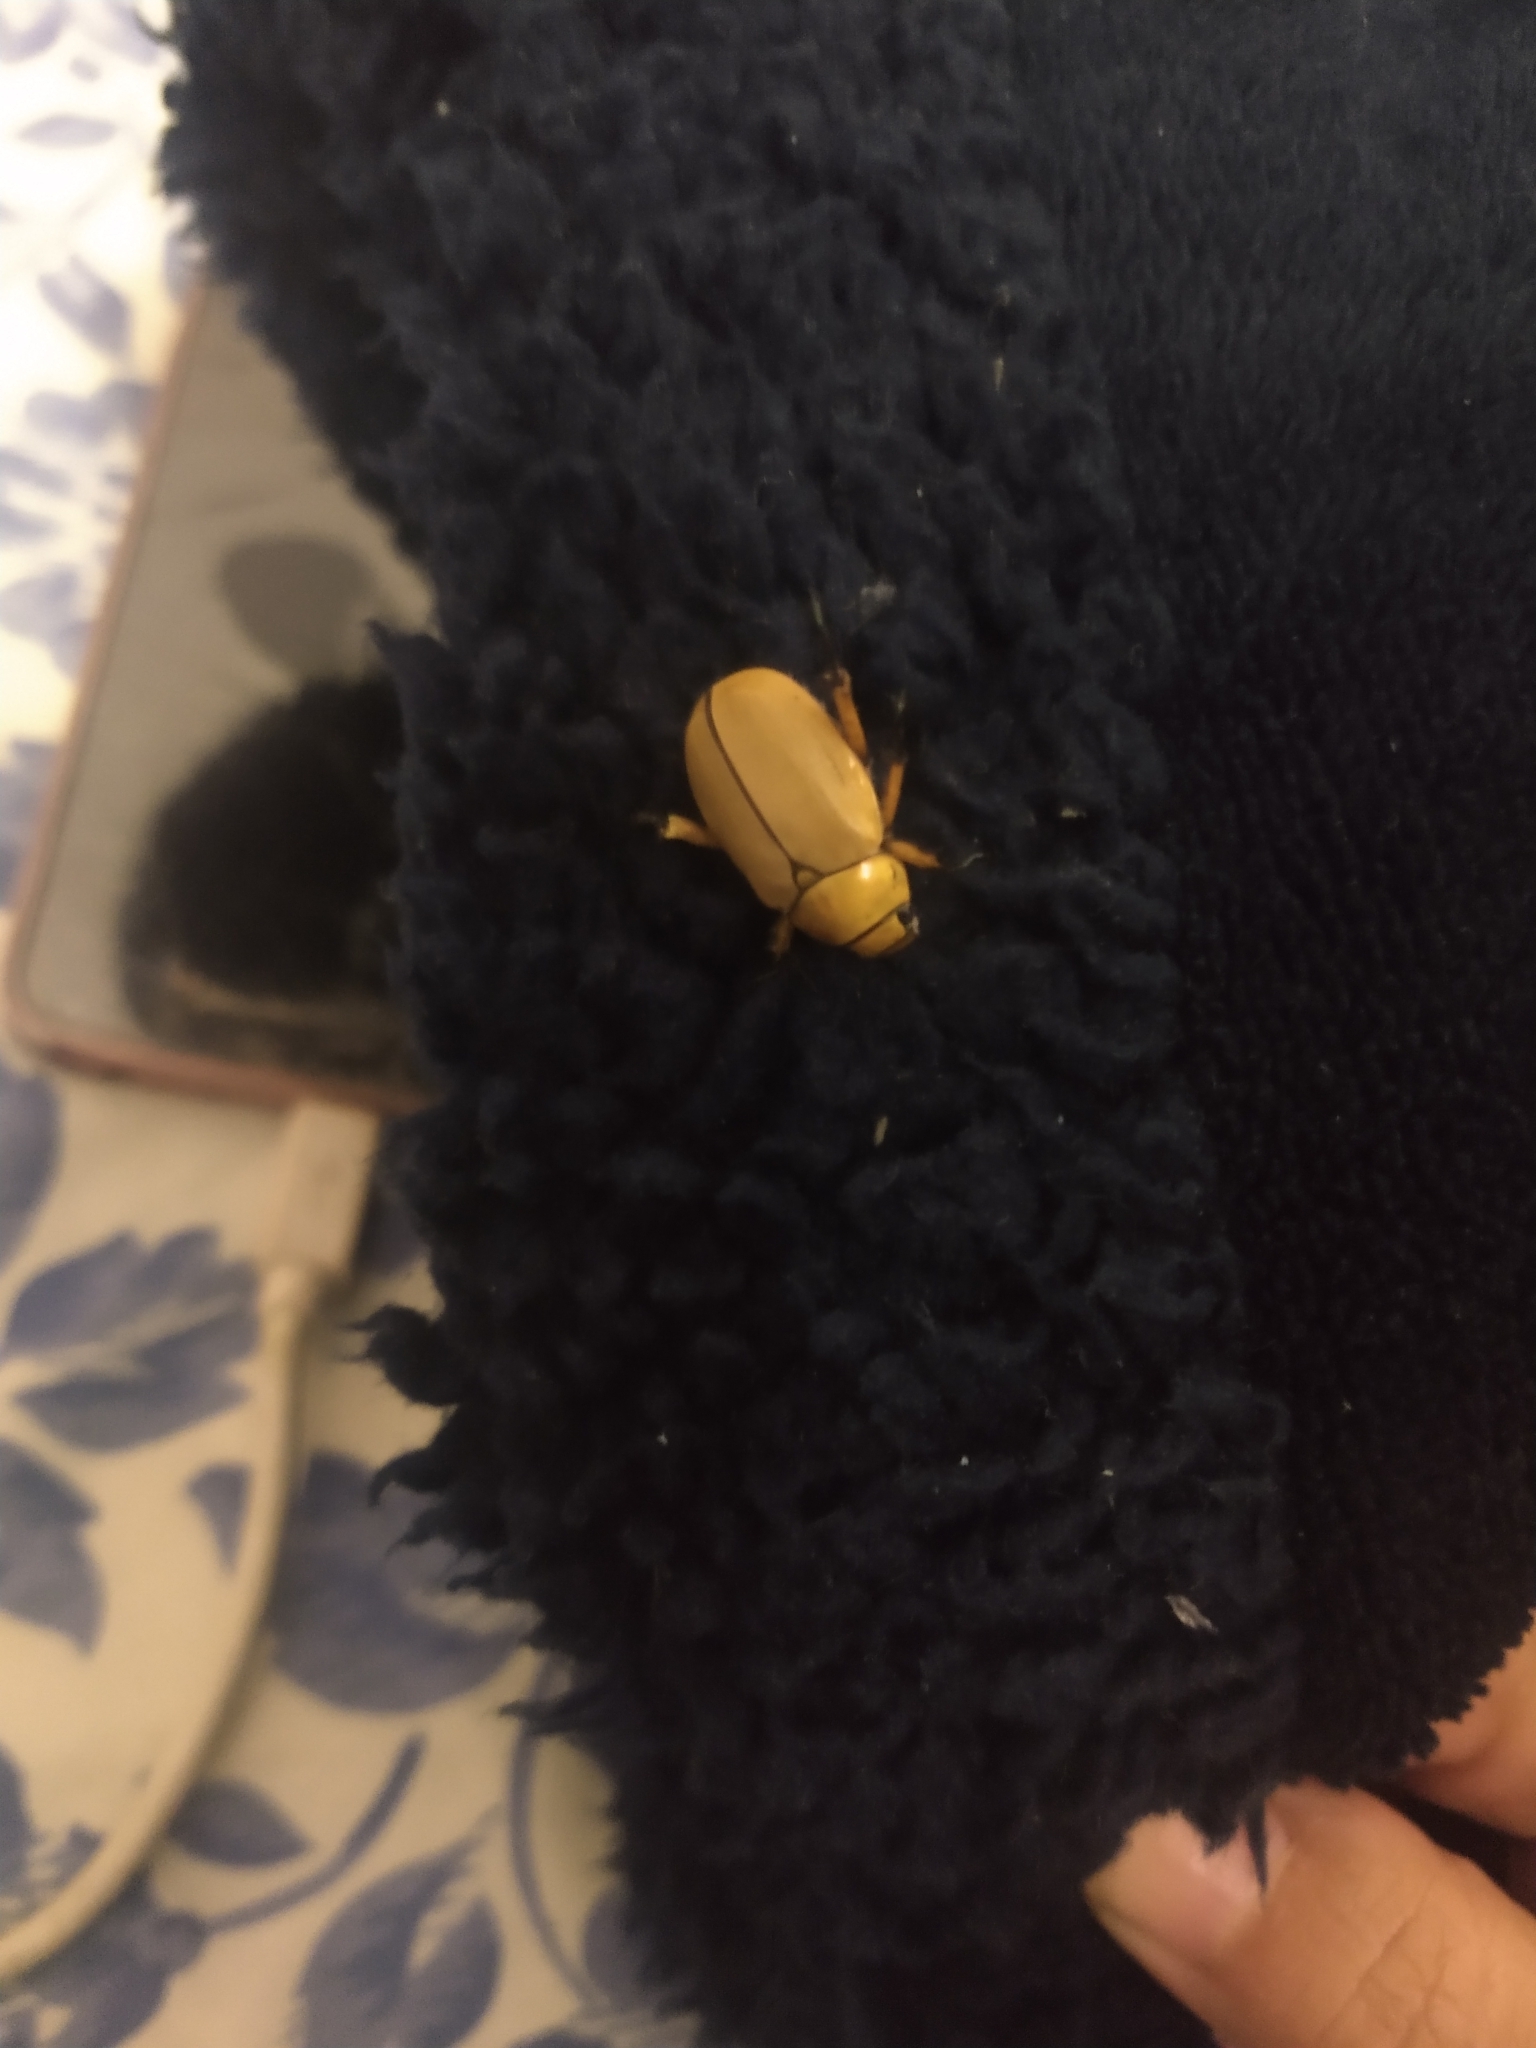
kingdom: Animalia
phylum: Arthropoda
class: Insecta
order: Coleoptera
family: Scarabaeidae
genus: Cotalpa
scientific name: Cotalpa consobrina
